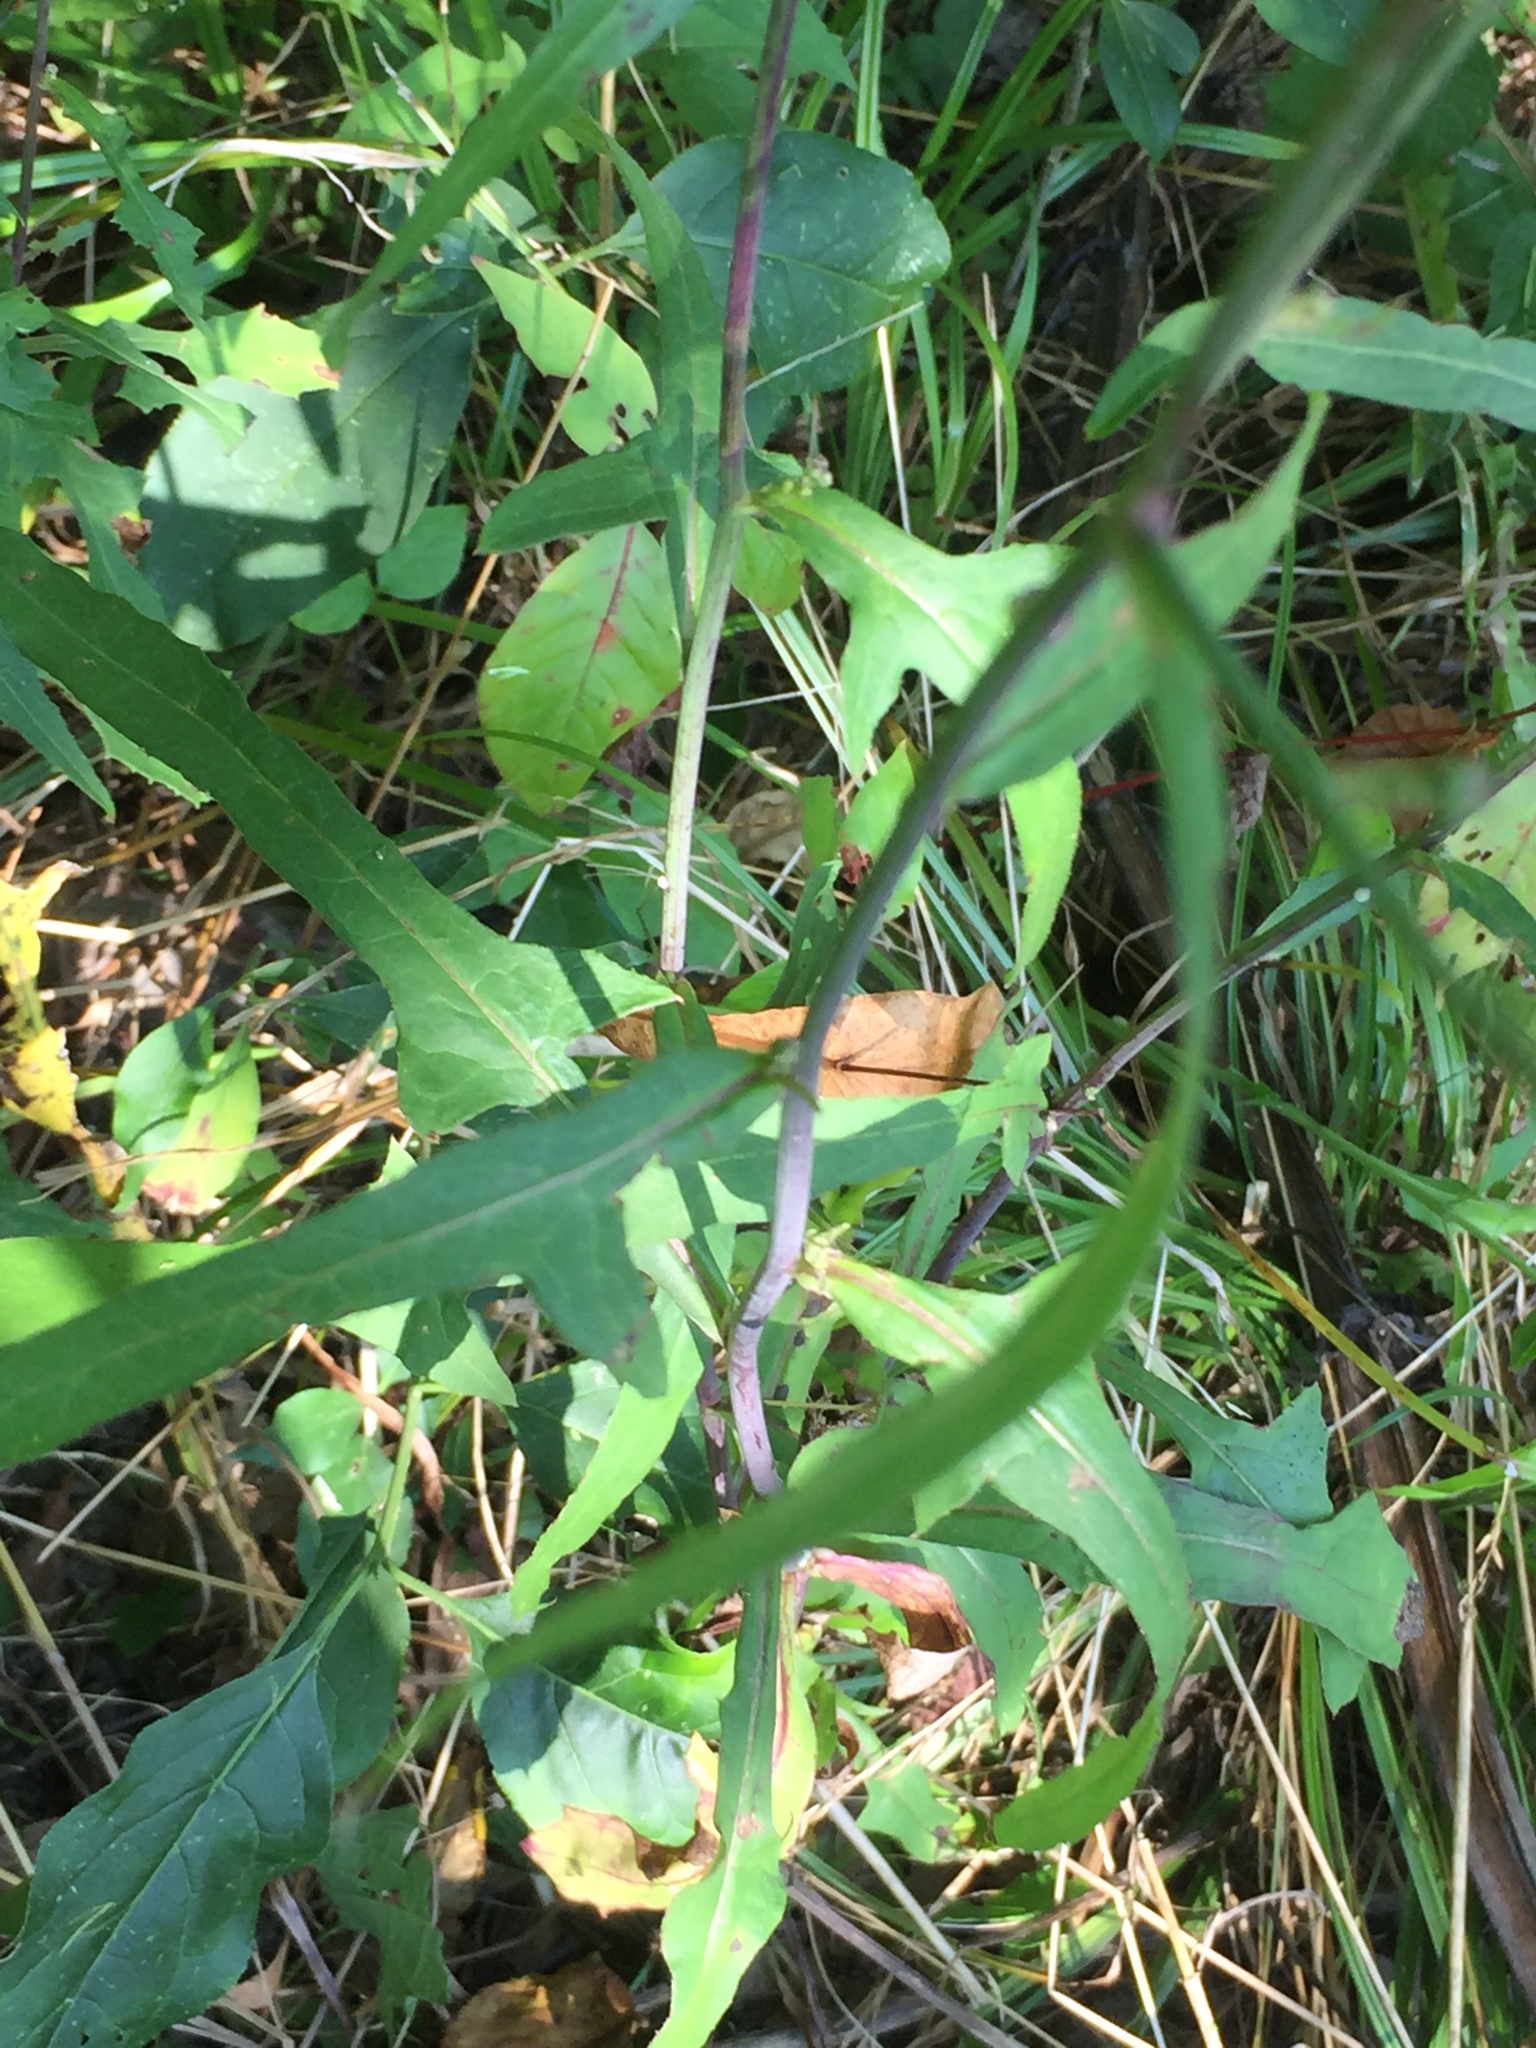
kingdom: Plantae
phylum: Tracheophyta
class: Magnoliopsida
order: Asterales
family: Asteraceae
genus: Lactuca
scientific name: Lactuca floridana
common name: Woodland lettuce
